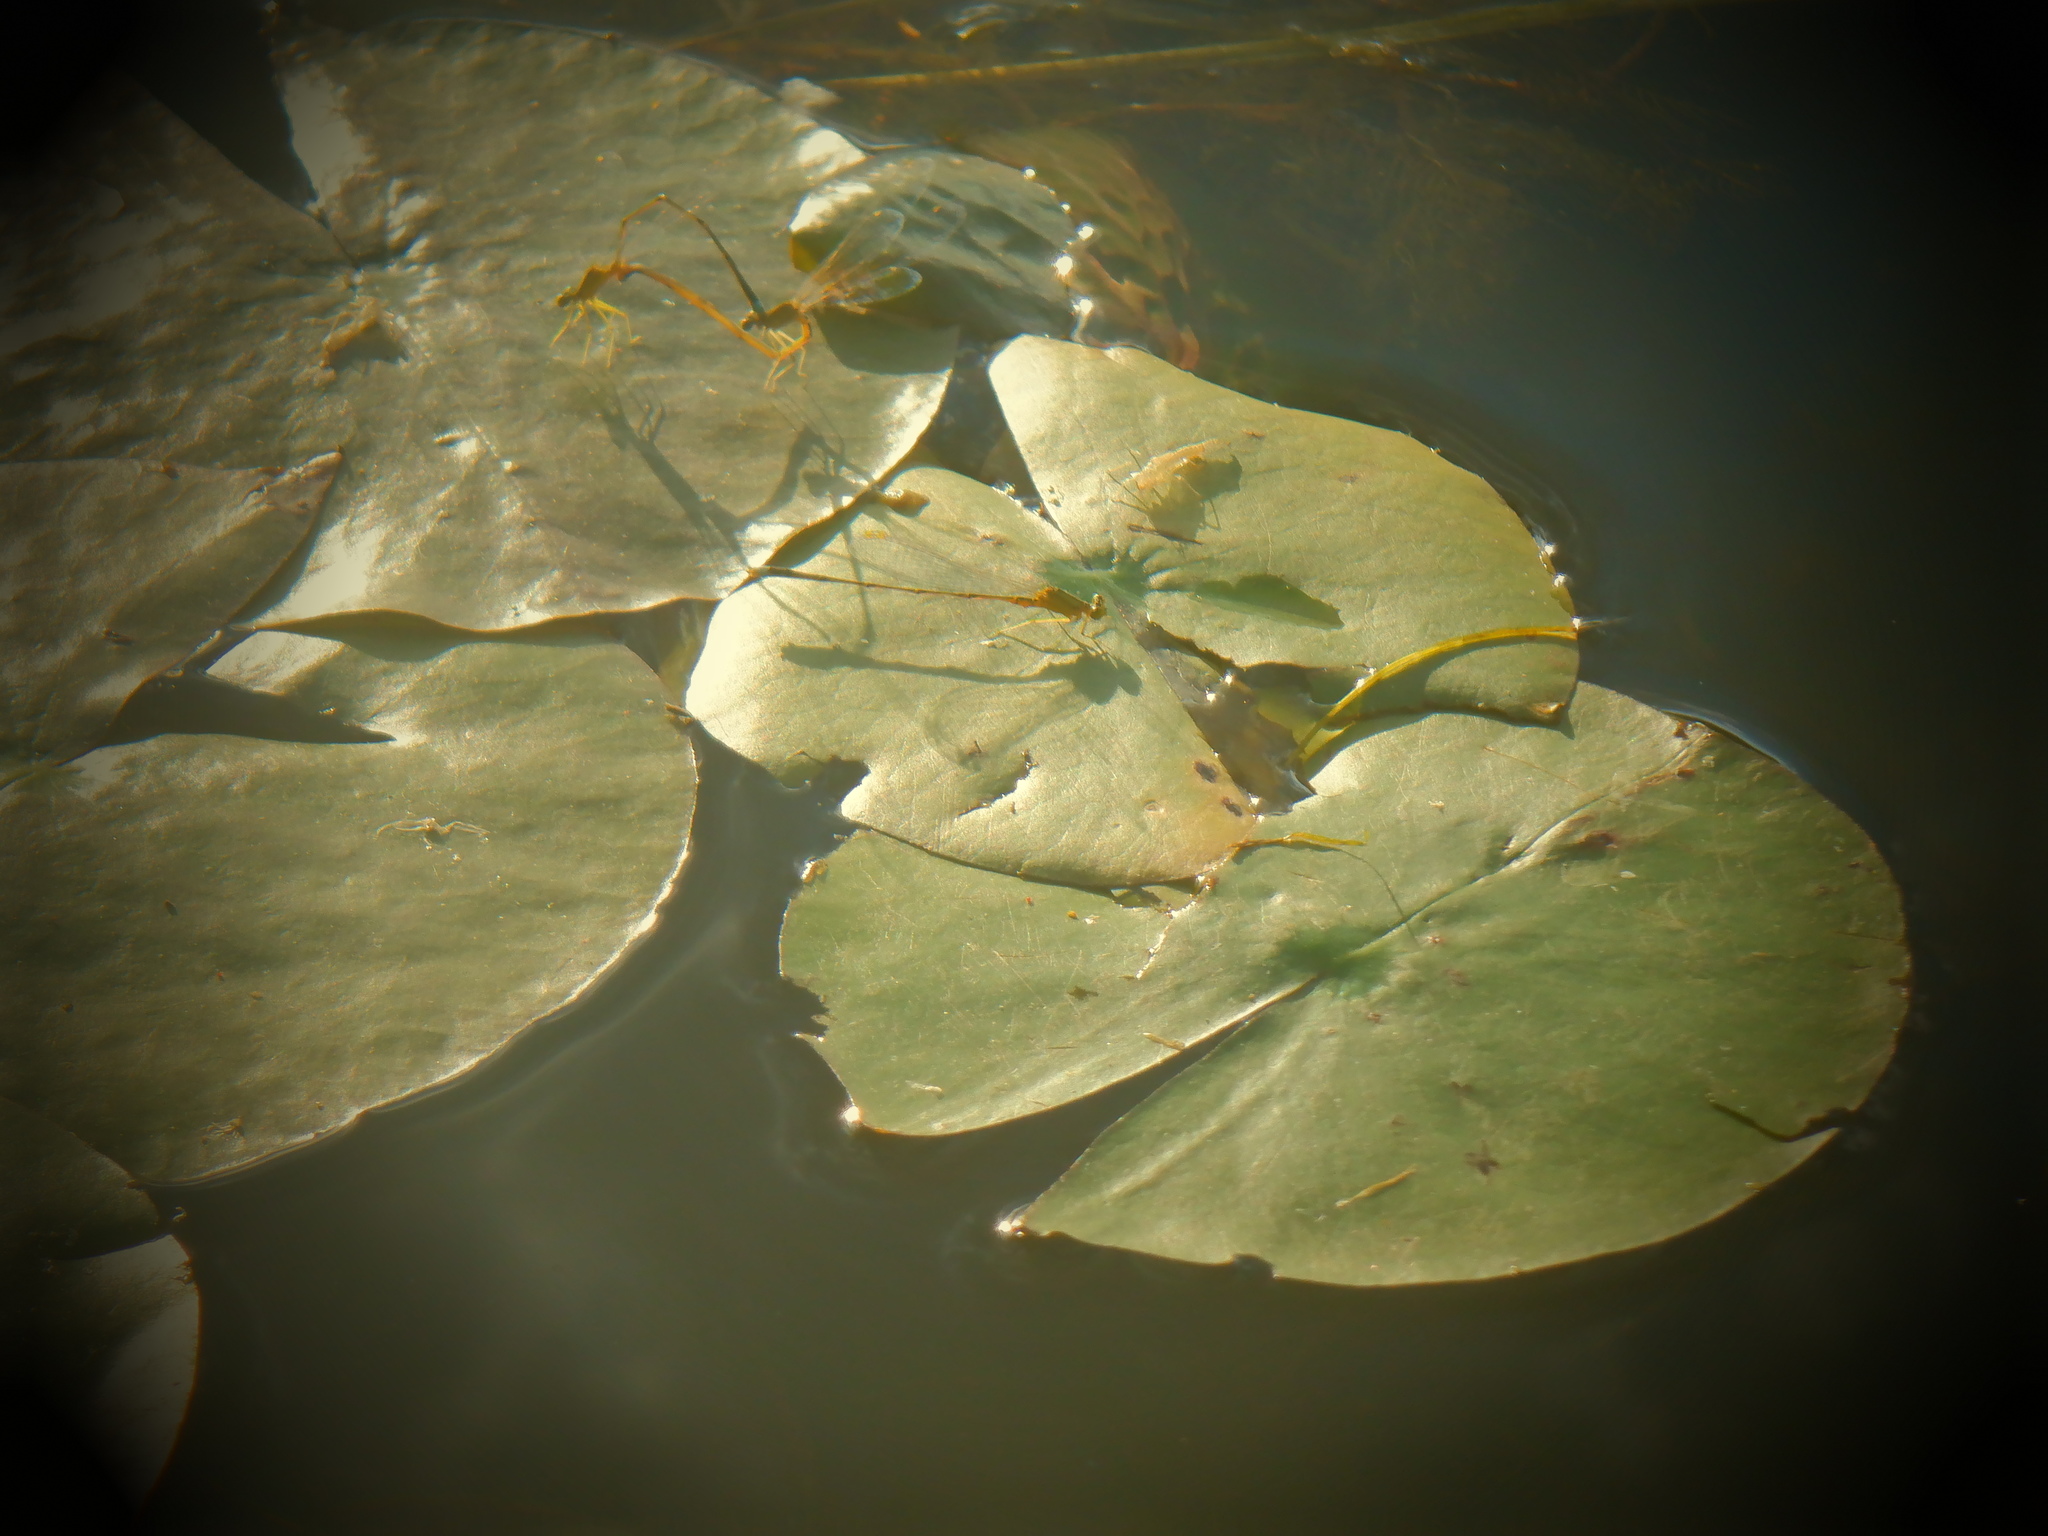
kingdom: Animalia
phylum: Arthropoda
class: Insecta
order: Odonata
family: Coenagrionidae
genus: Enallagma
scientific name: Enallagma vesperum
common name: Vesper bluet
